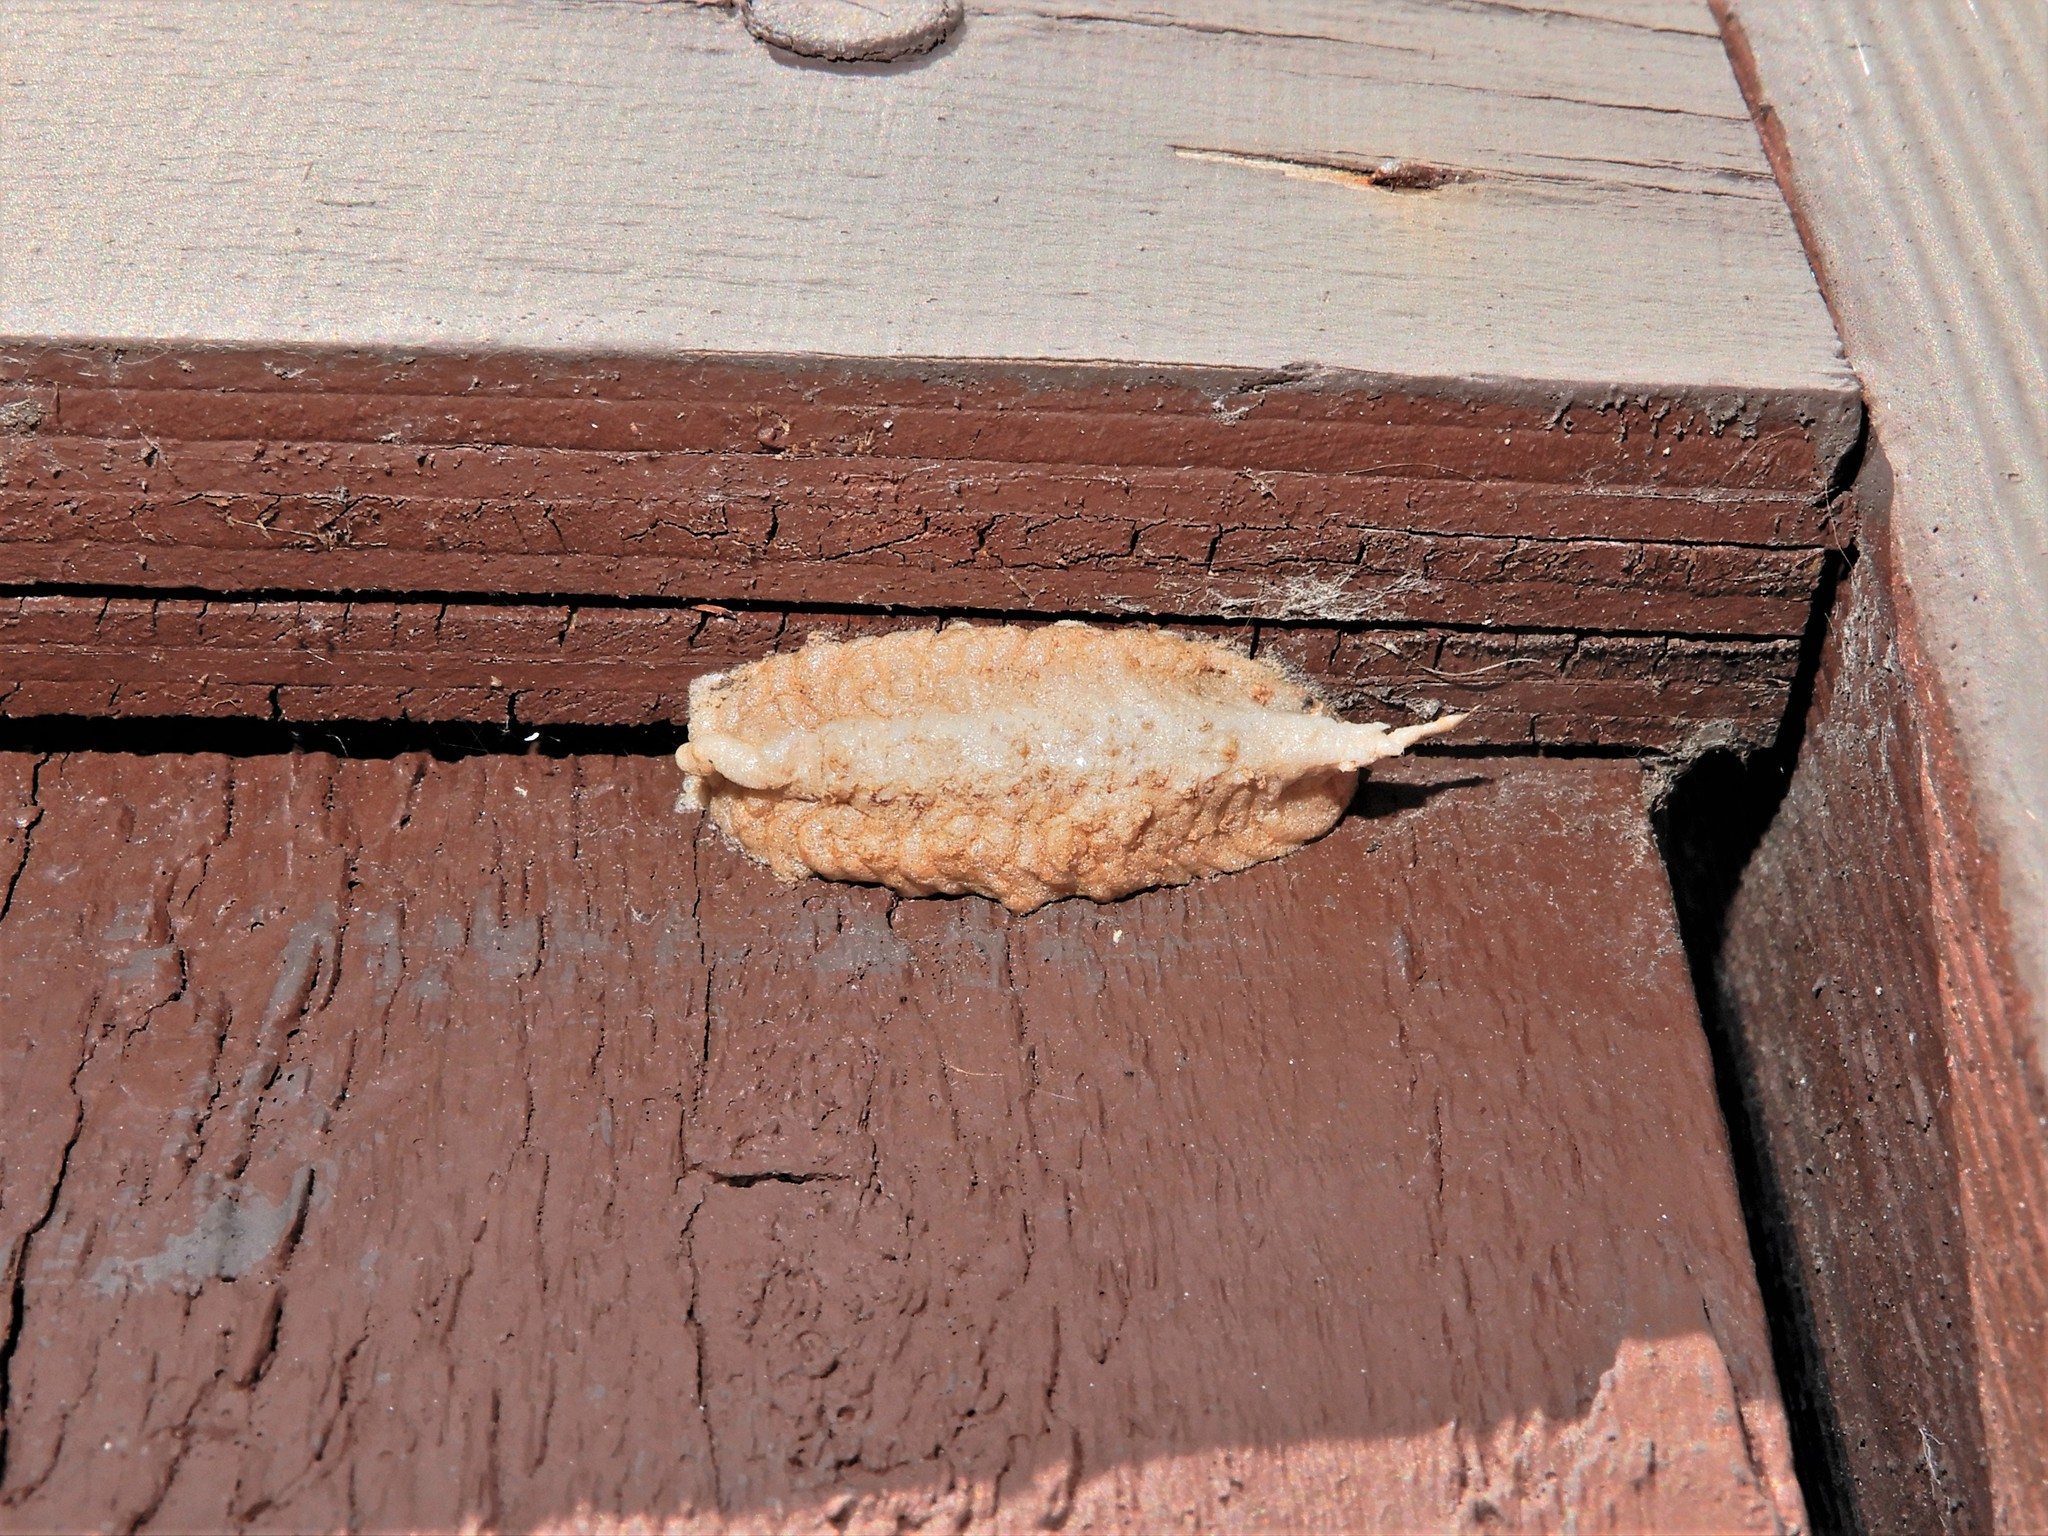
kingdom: Animalia
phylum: Arthropoda
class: Insecta
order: Mantodea
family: Miomantidae
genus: Miomantis
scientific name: Miomantis caffra
